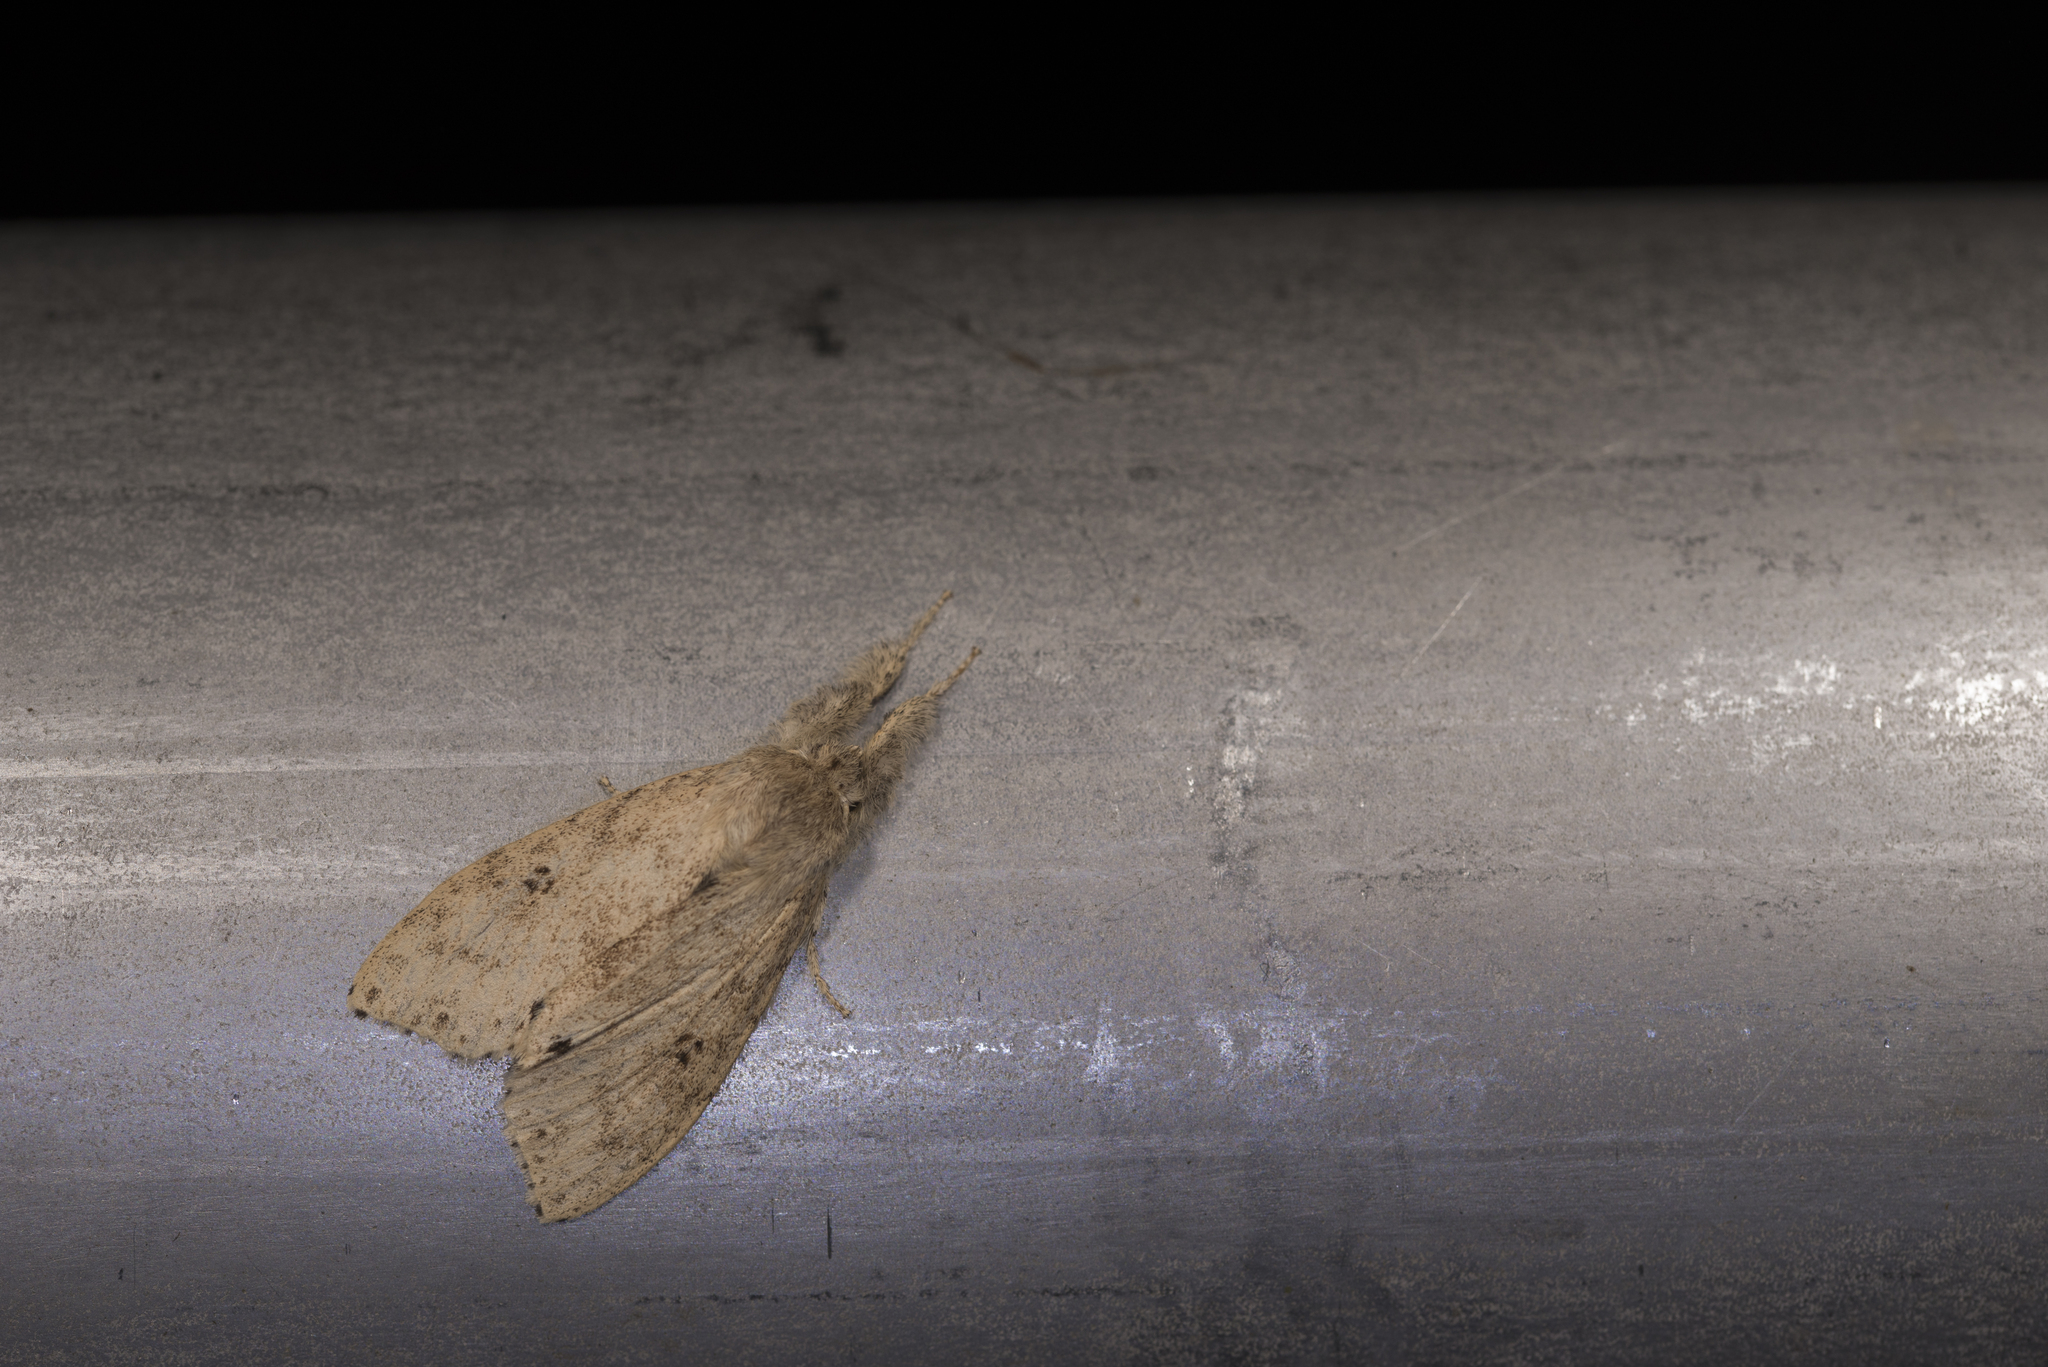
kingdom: Animalia
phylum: Arthropoda
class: Insecta
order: Lepidoptera
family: Erebidae
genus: Calliteara
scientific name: Calliteara angulata
